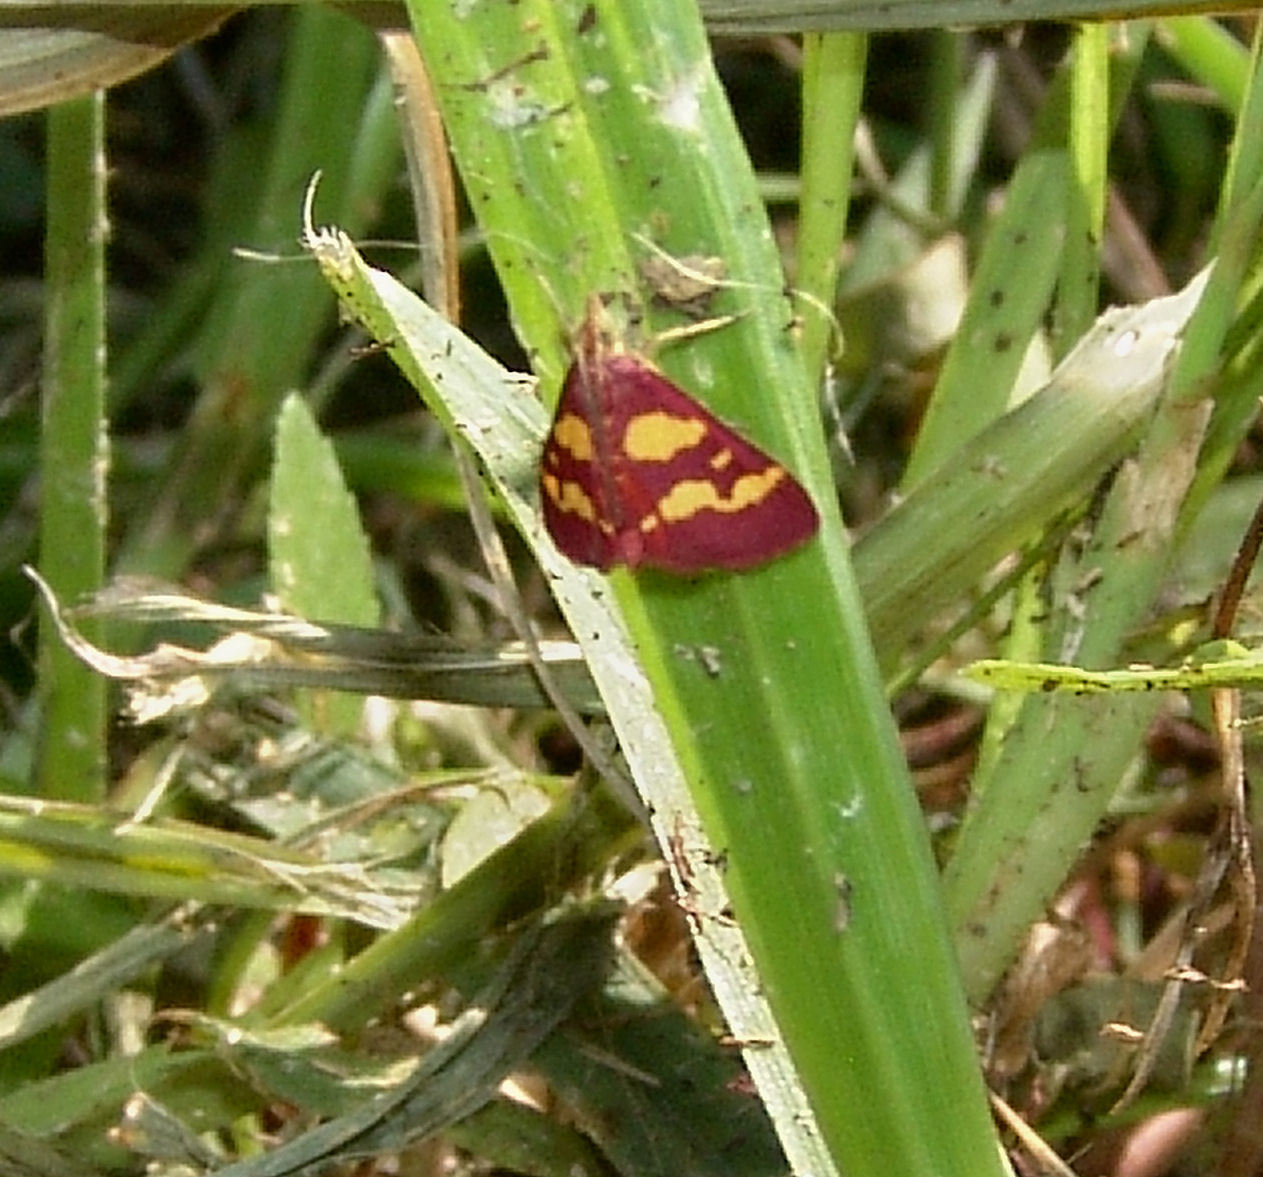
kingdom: Animalia
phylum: Arthropoda
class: Insecta
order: Lepidoptera
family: Crambidae
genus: Pyrausta
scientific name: Pyrausta tyralis
